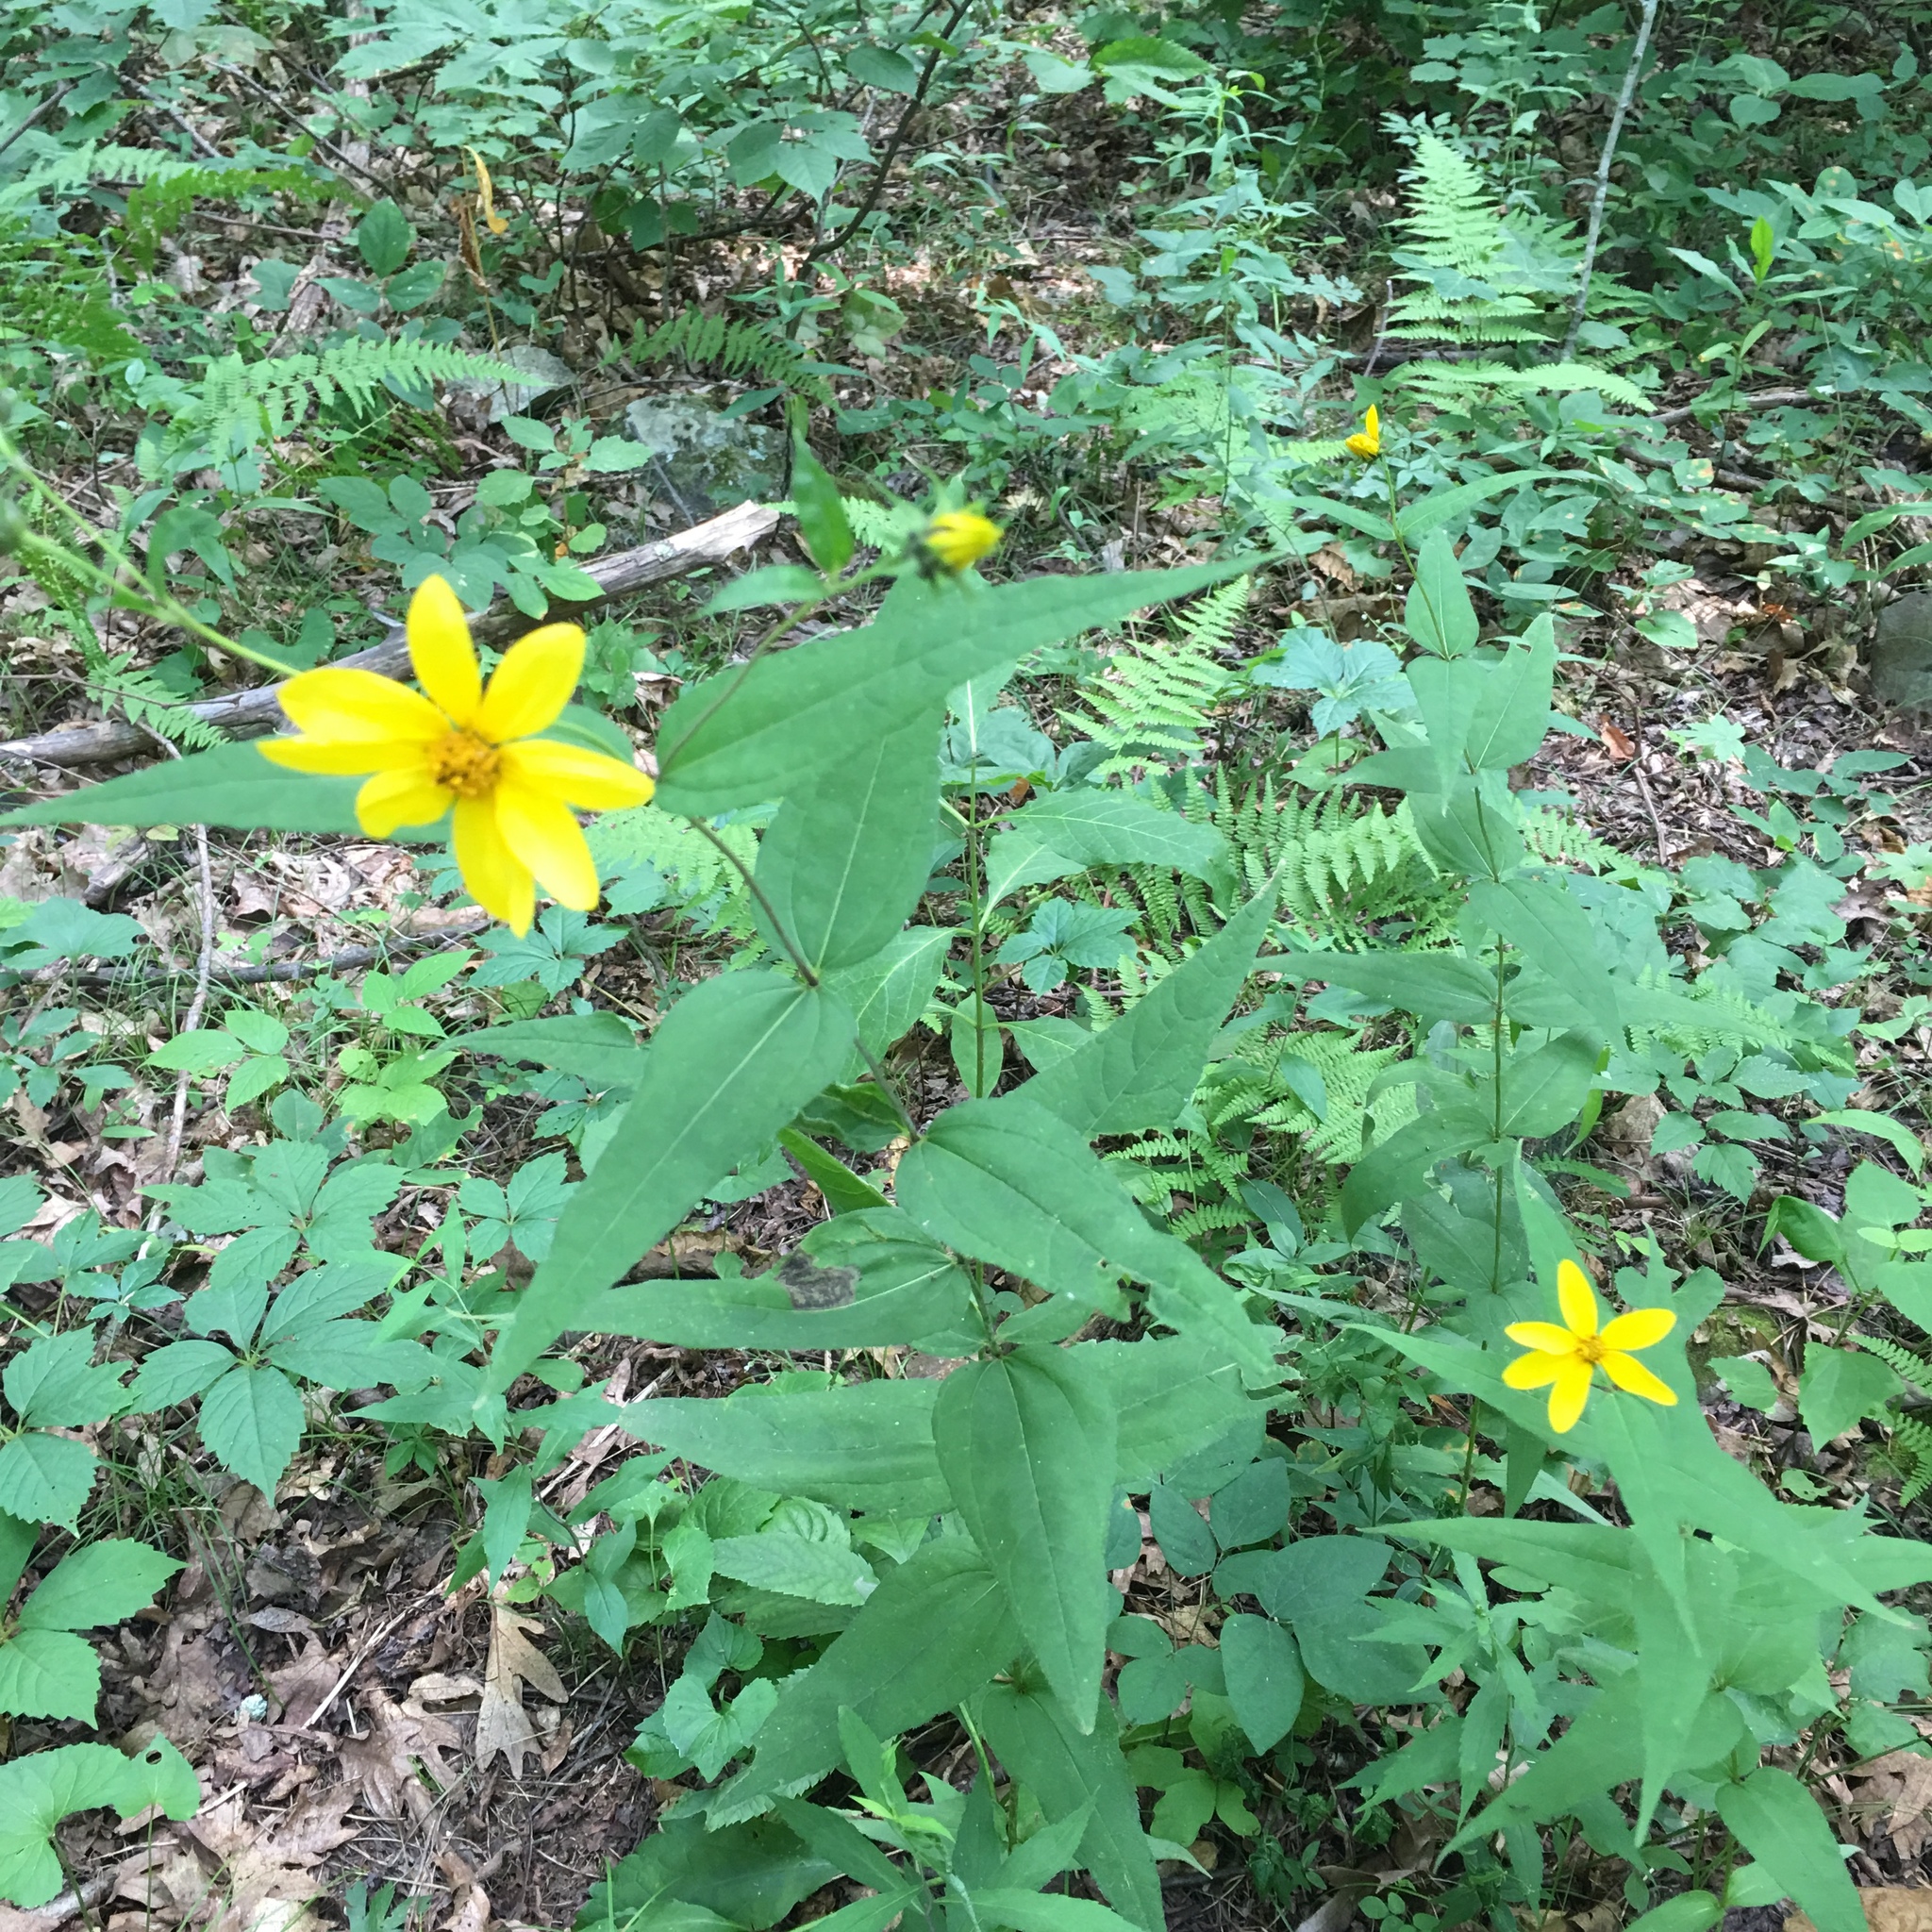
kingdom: Plantae
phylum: Tracheophyta
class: Magnoliopsida
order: Asterales
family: Asteraceae
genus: Helianthus
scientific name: Helianthus divaricatus
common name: Divergent sunflower
